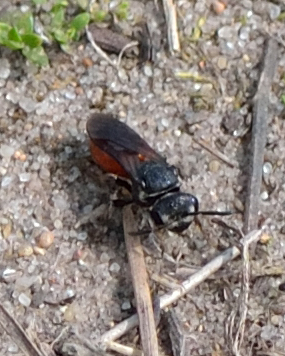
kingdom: Animalia
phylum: Arthropoda
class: Insecta
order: Hymenoptera
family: Halictidae
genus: Sphecodes
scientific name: Sphecodes albilabris
